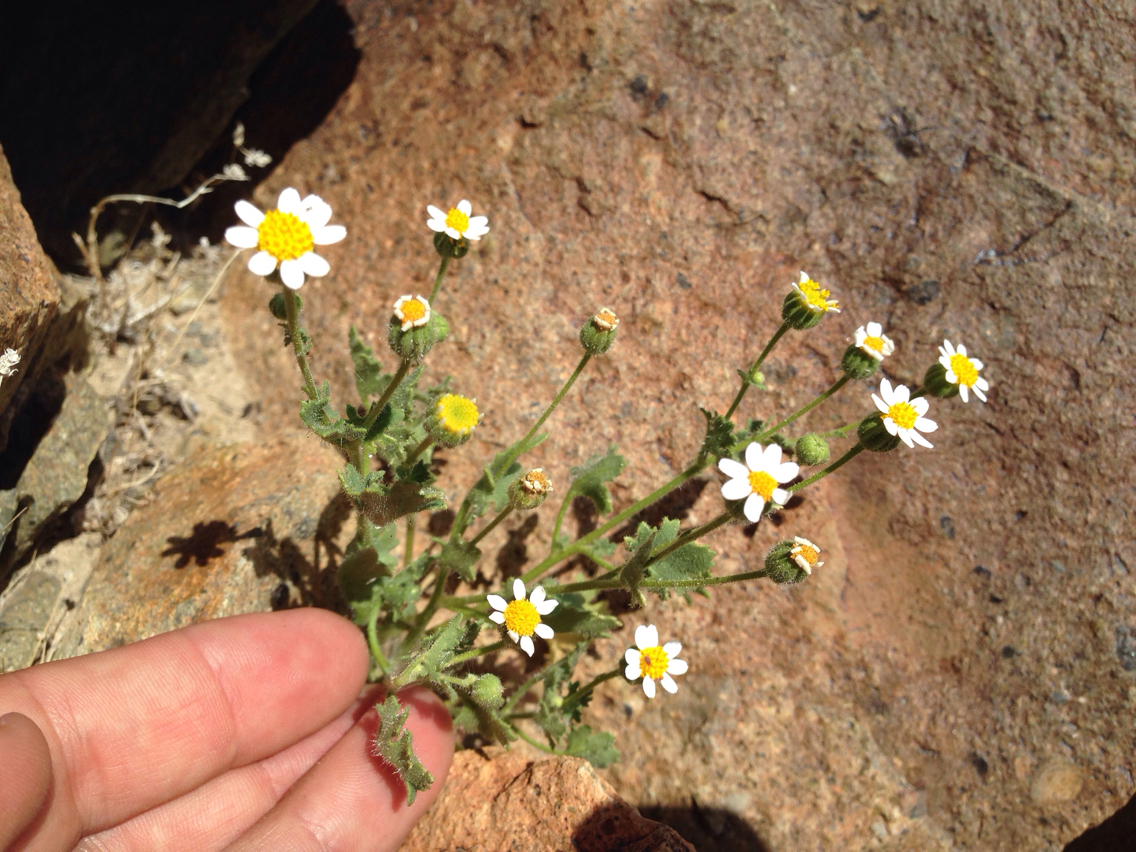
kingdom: Plantae
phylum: Tracheophyta
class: Magnoliopsida
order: Asterales
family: Asteraceae
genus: Laphamia
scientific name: Laphamia emoryi
